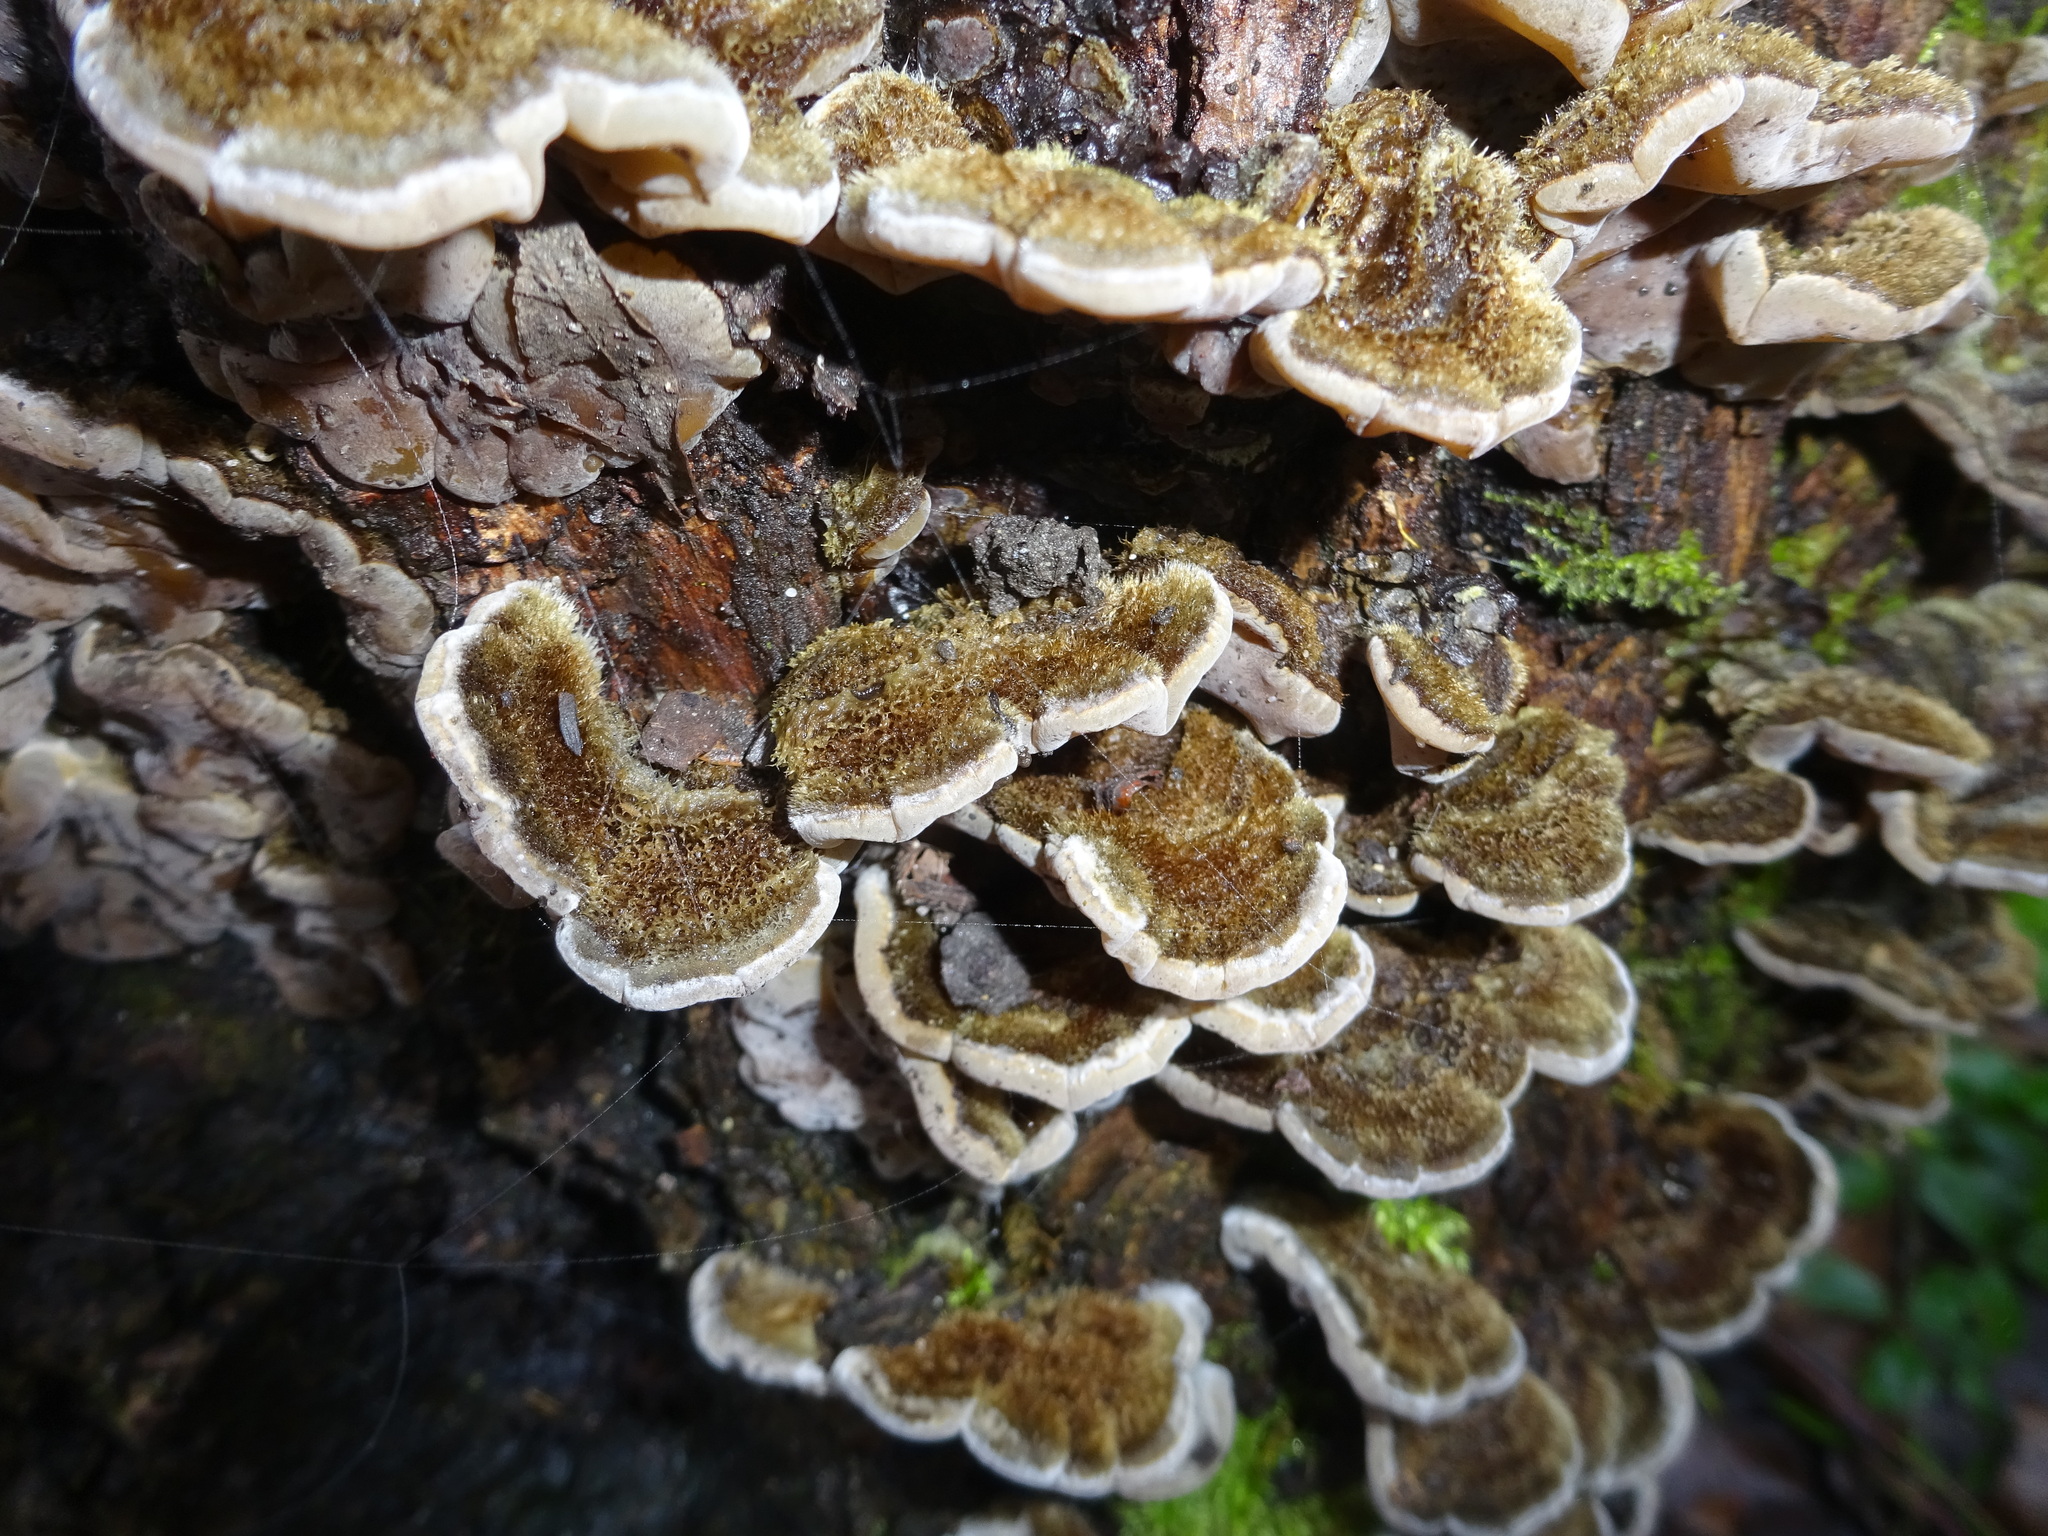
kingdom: Fungi
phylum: Basidiomycota
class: Agaricomycetes
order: Auriculariales
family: Auriculariaceae
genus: Auricularia
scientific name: Auricularia mesenterica
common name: Tripe fungus
